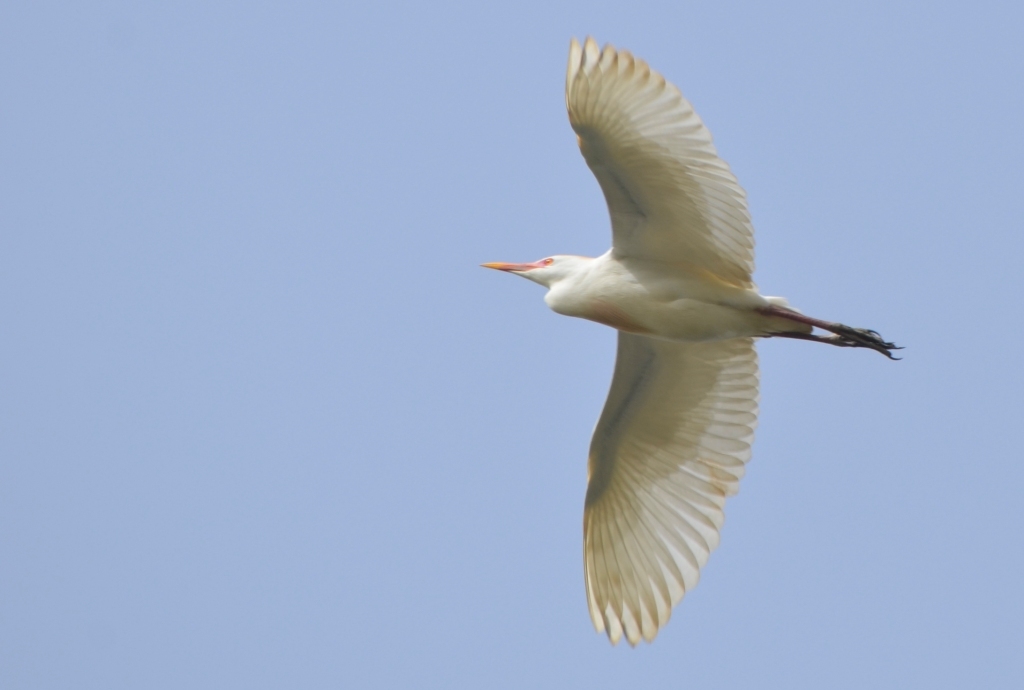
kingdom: Animalia
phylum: Chordata
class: Aves
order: Pelecaniformes
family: Ardeidae
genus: Bubulcus
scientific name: Bubulcus ibis
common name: Cattle egret
